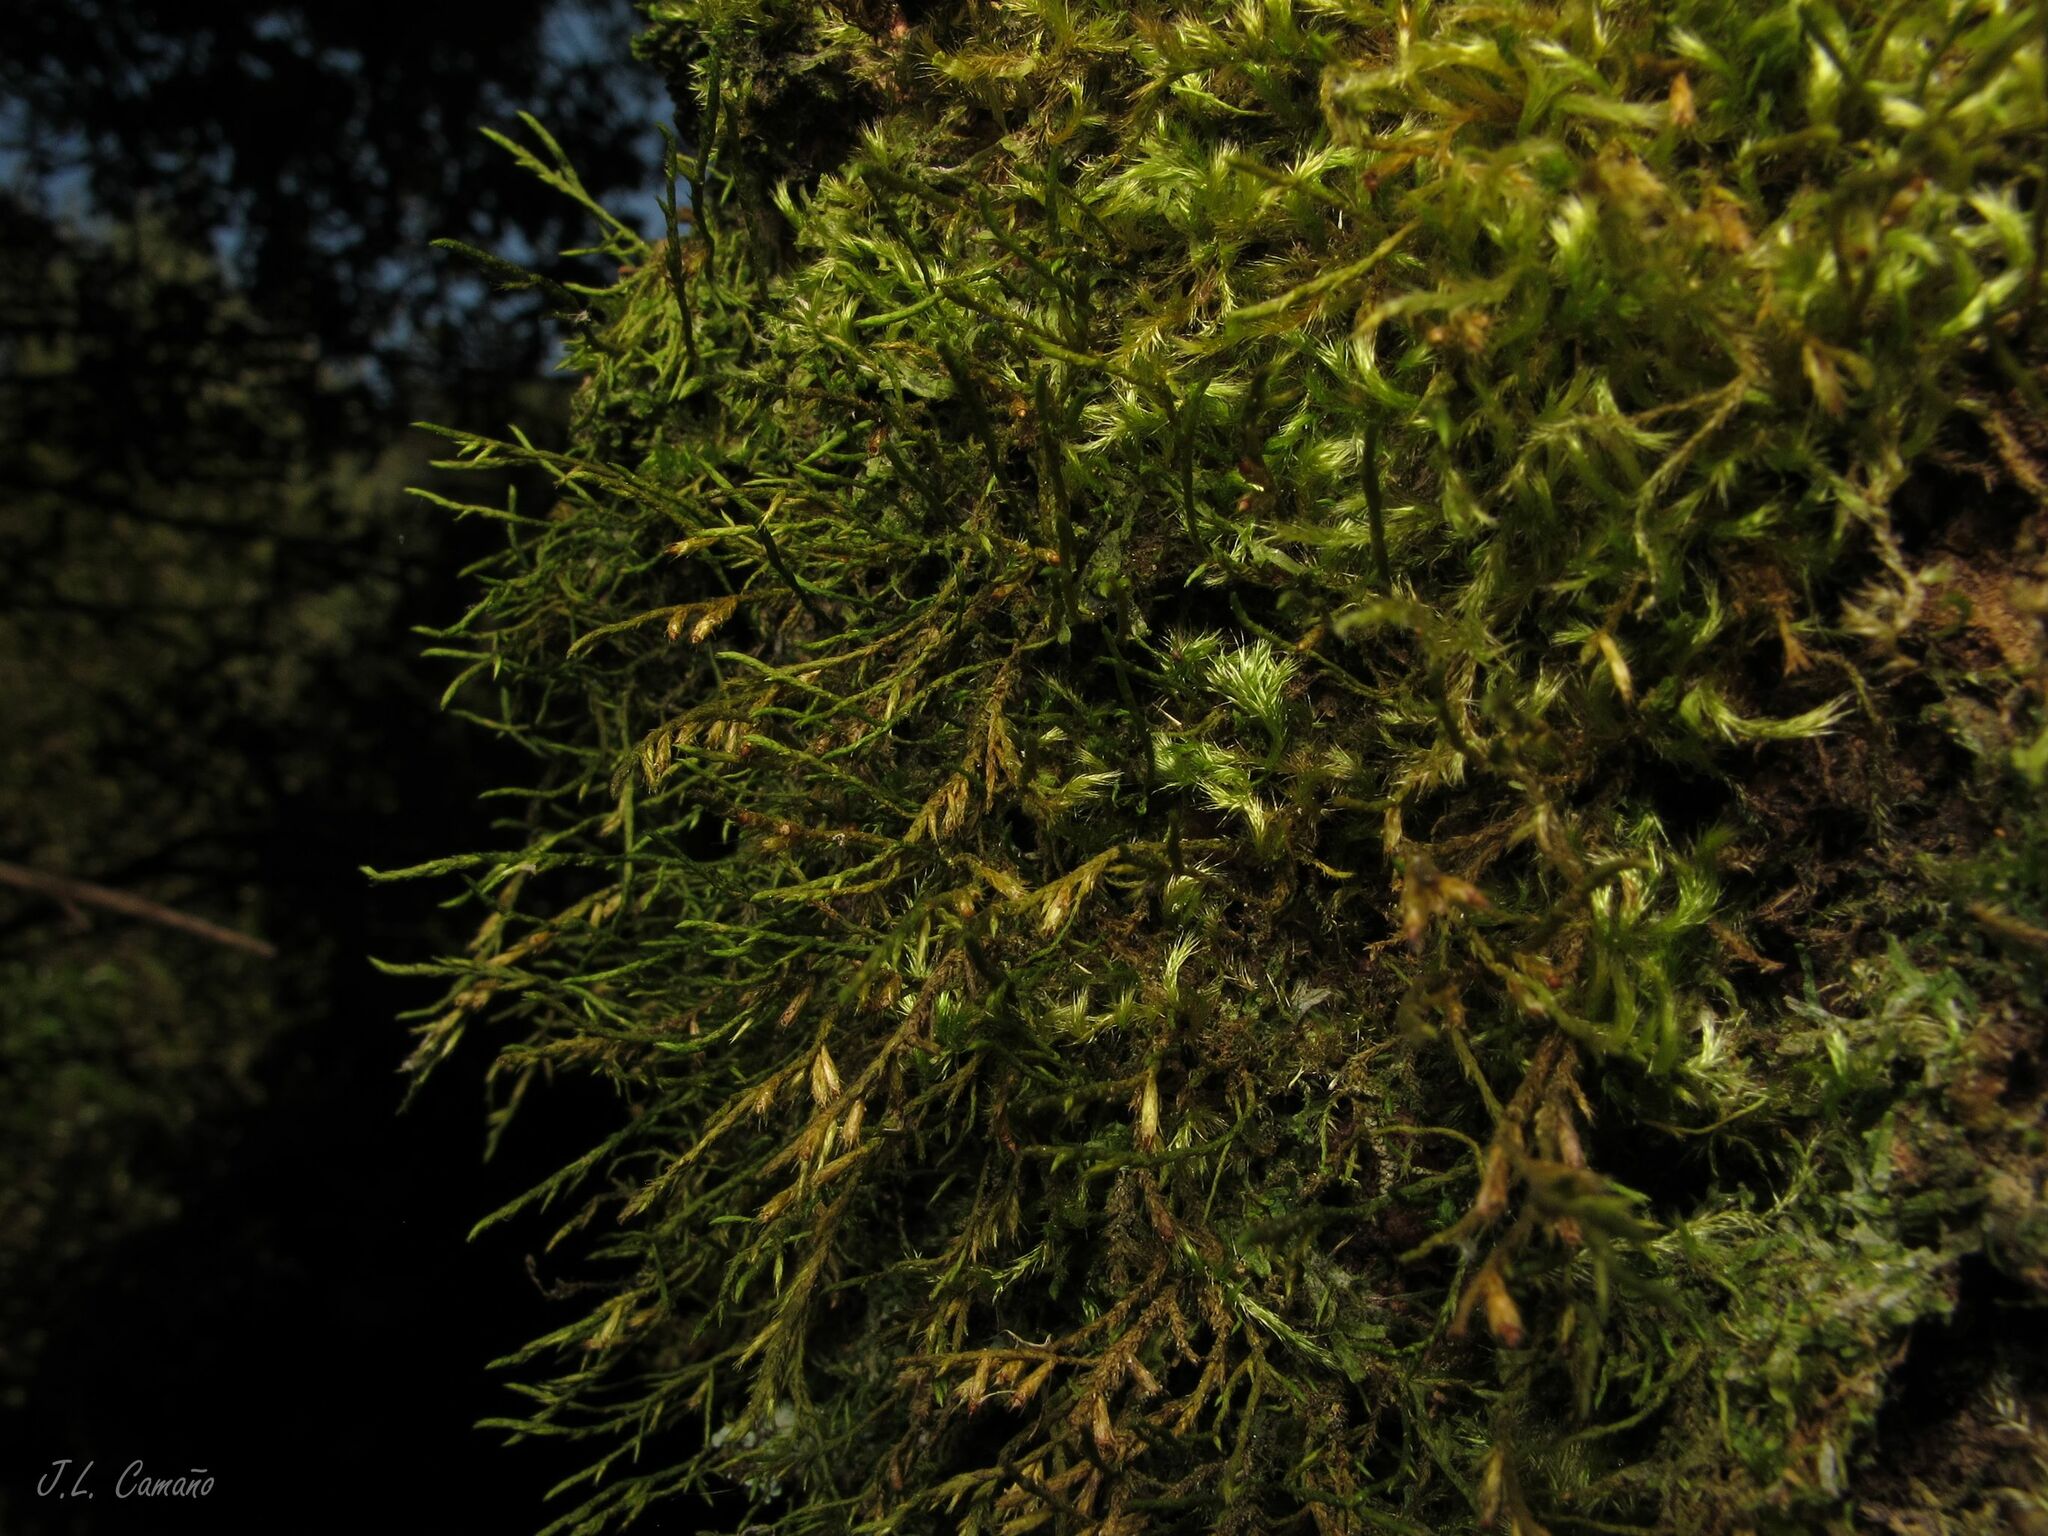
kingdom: Plantae
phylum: Bryophyta
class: Bryopsida
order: Hypnales
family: Cryphaeaceae
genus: Cryphaea
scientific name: Cryphaea heteromalla
